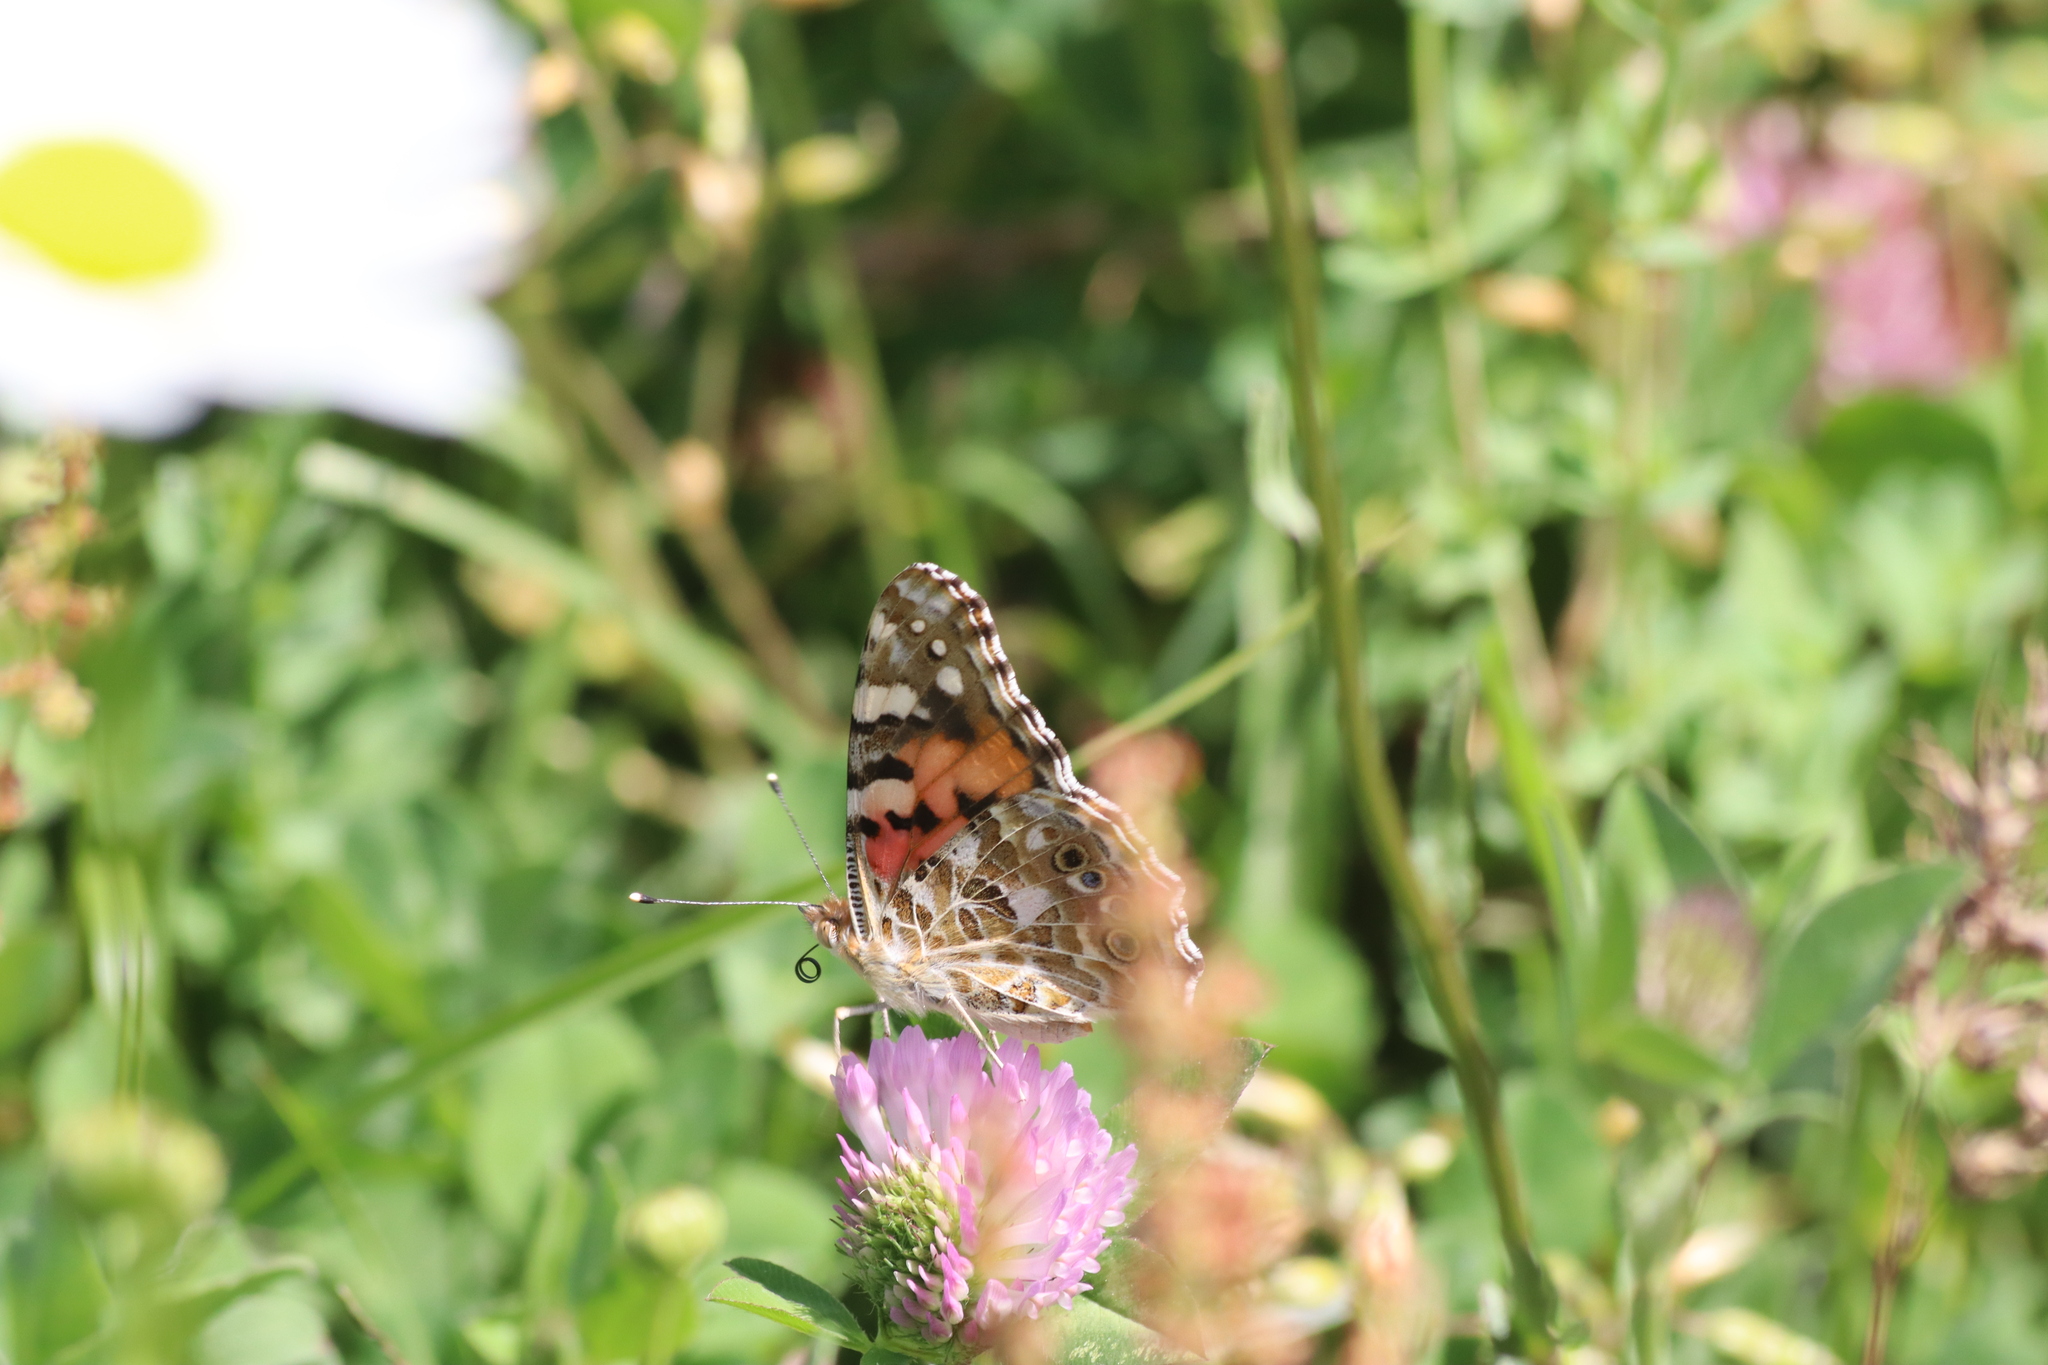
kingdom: Animalia
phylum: Arthropoda
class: Insecta
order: Lepidoptera
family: Nymphalidae
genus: Vanessa
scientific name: Vanessa cardui
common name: Painted lady
